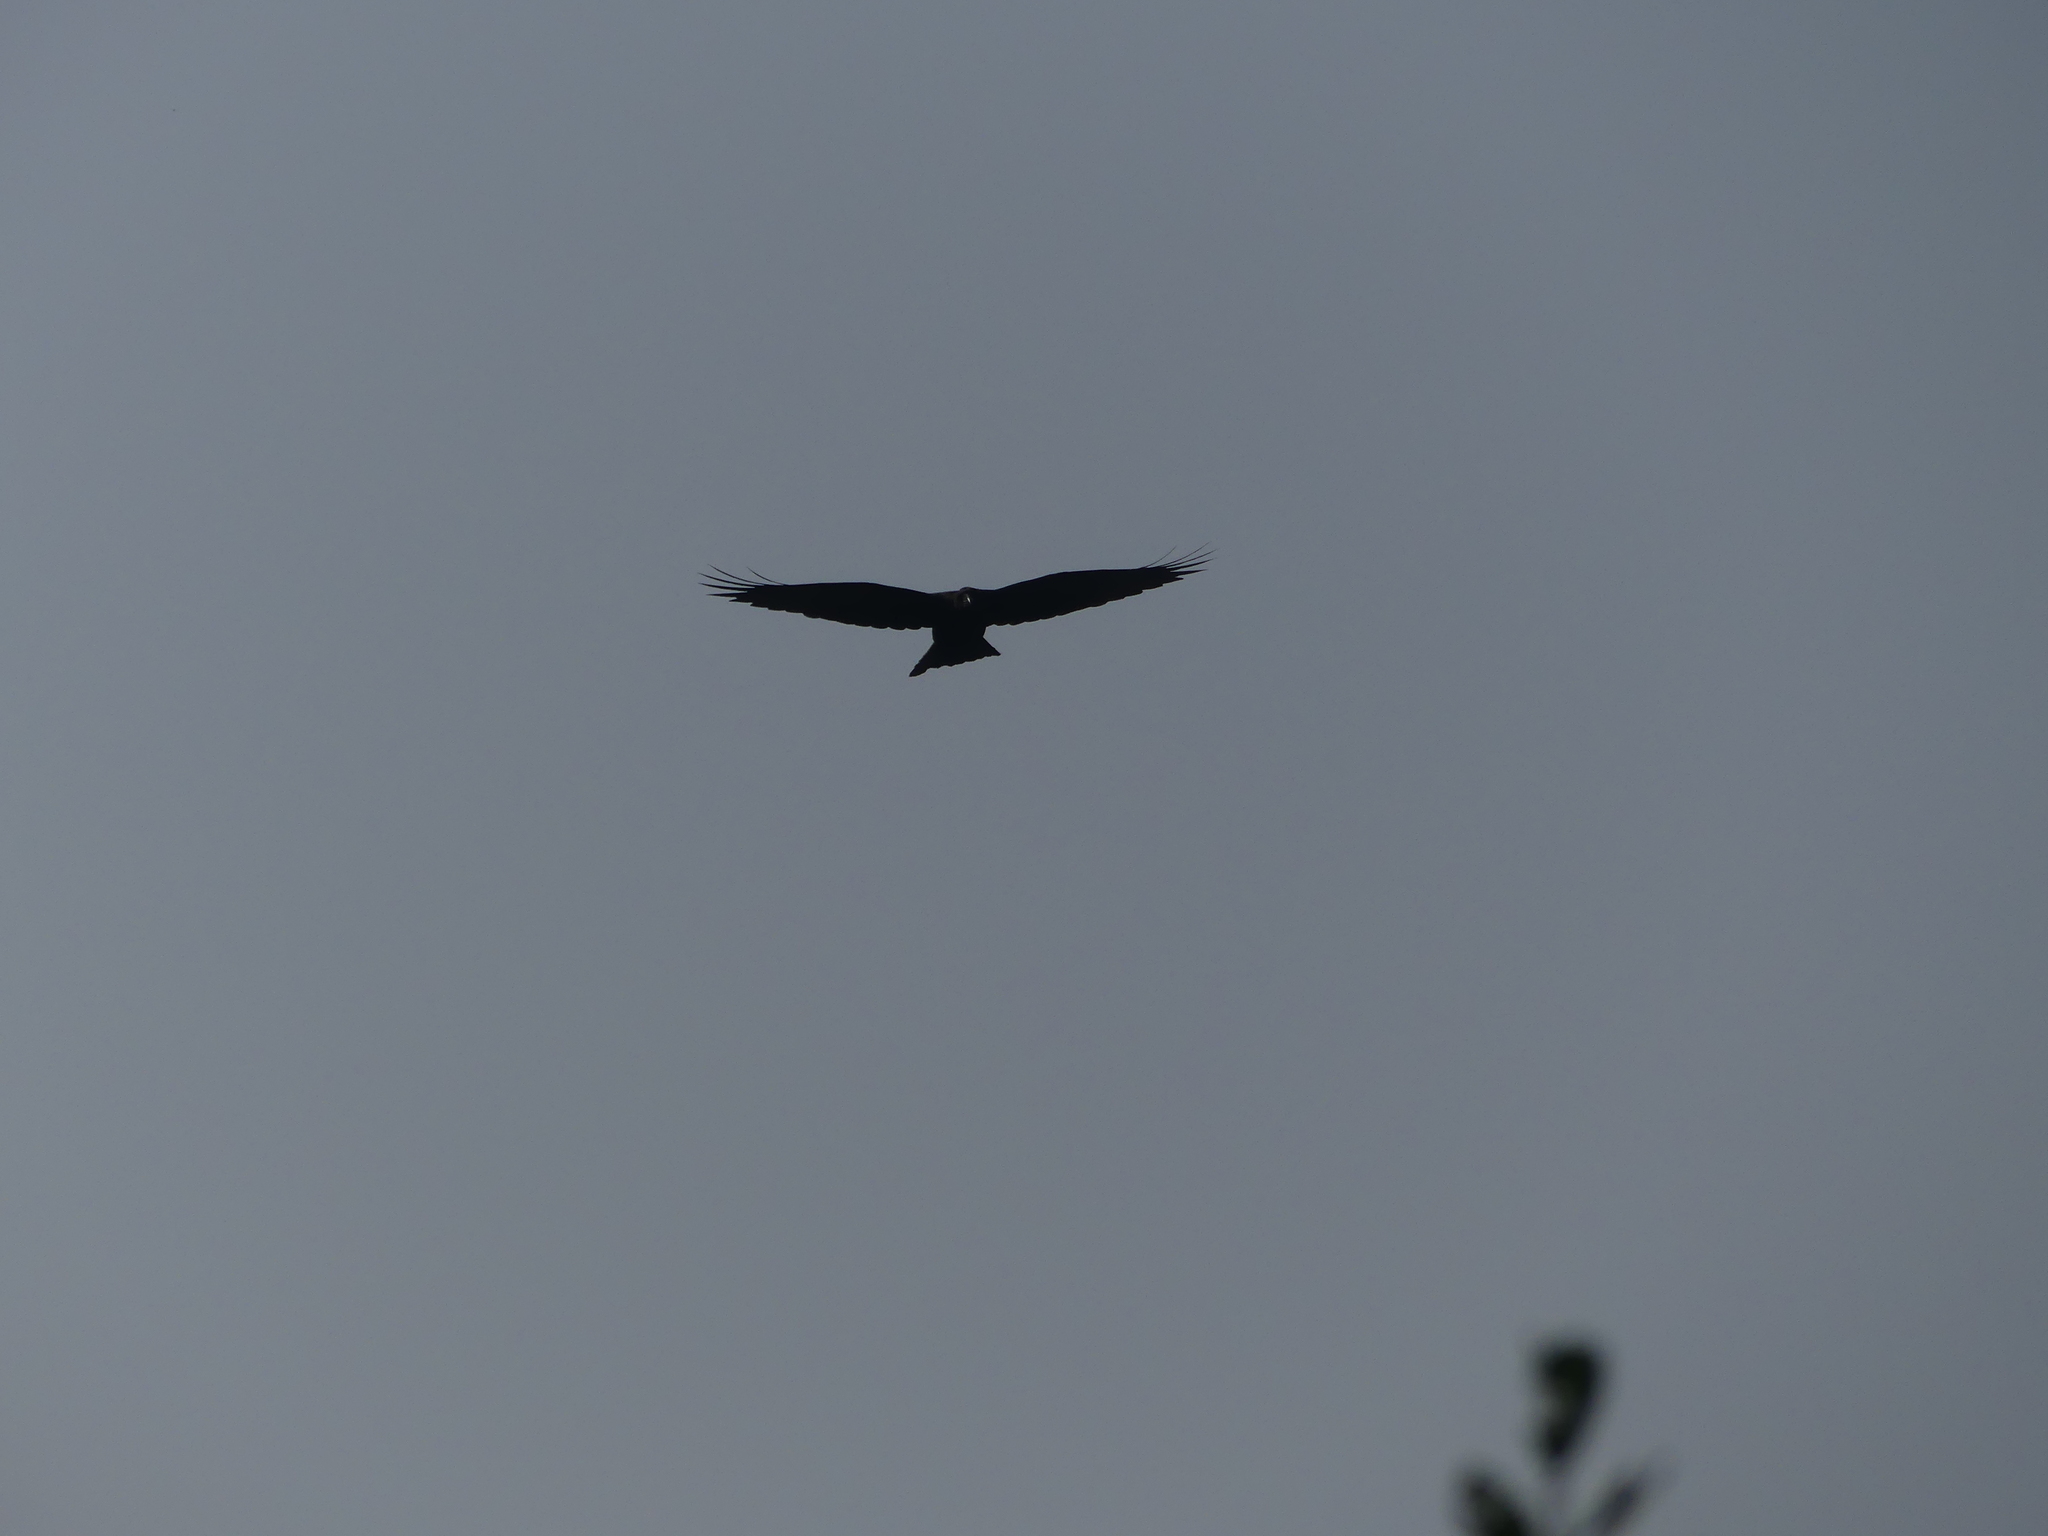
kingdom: Animalia
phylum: Chordata
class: Aves
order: Passeriformes
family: Corvidae
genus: Corvus
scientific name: Corvus corax
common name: Common raven
